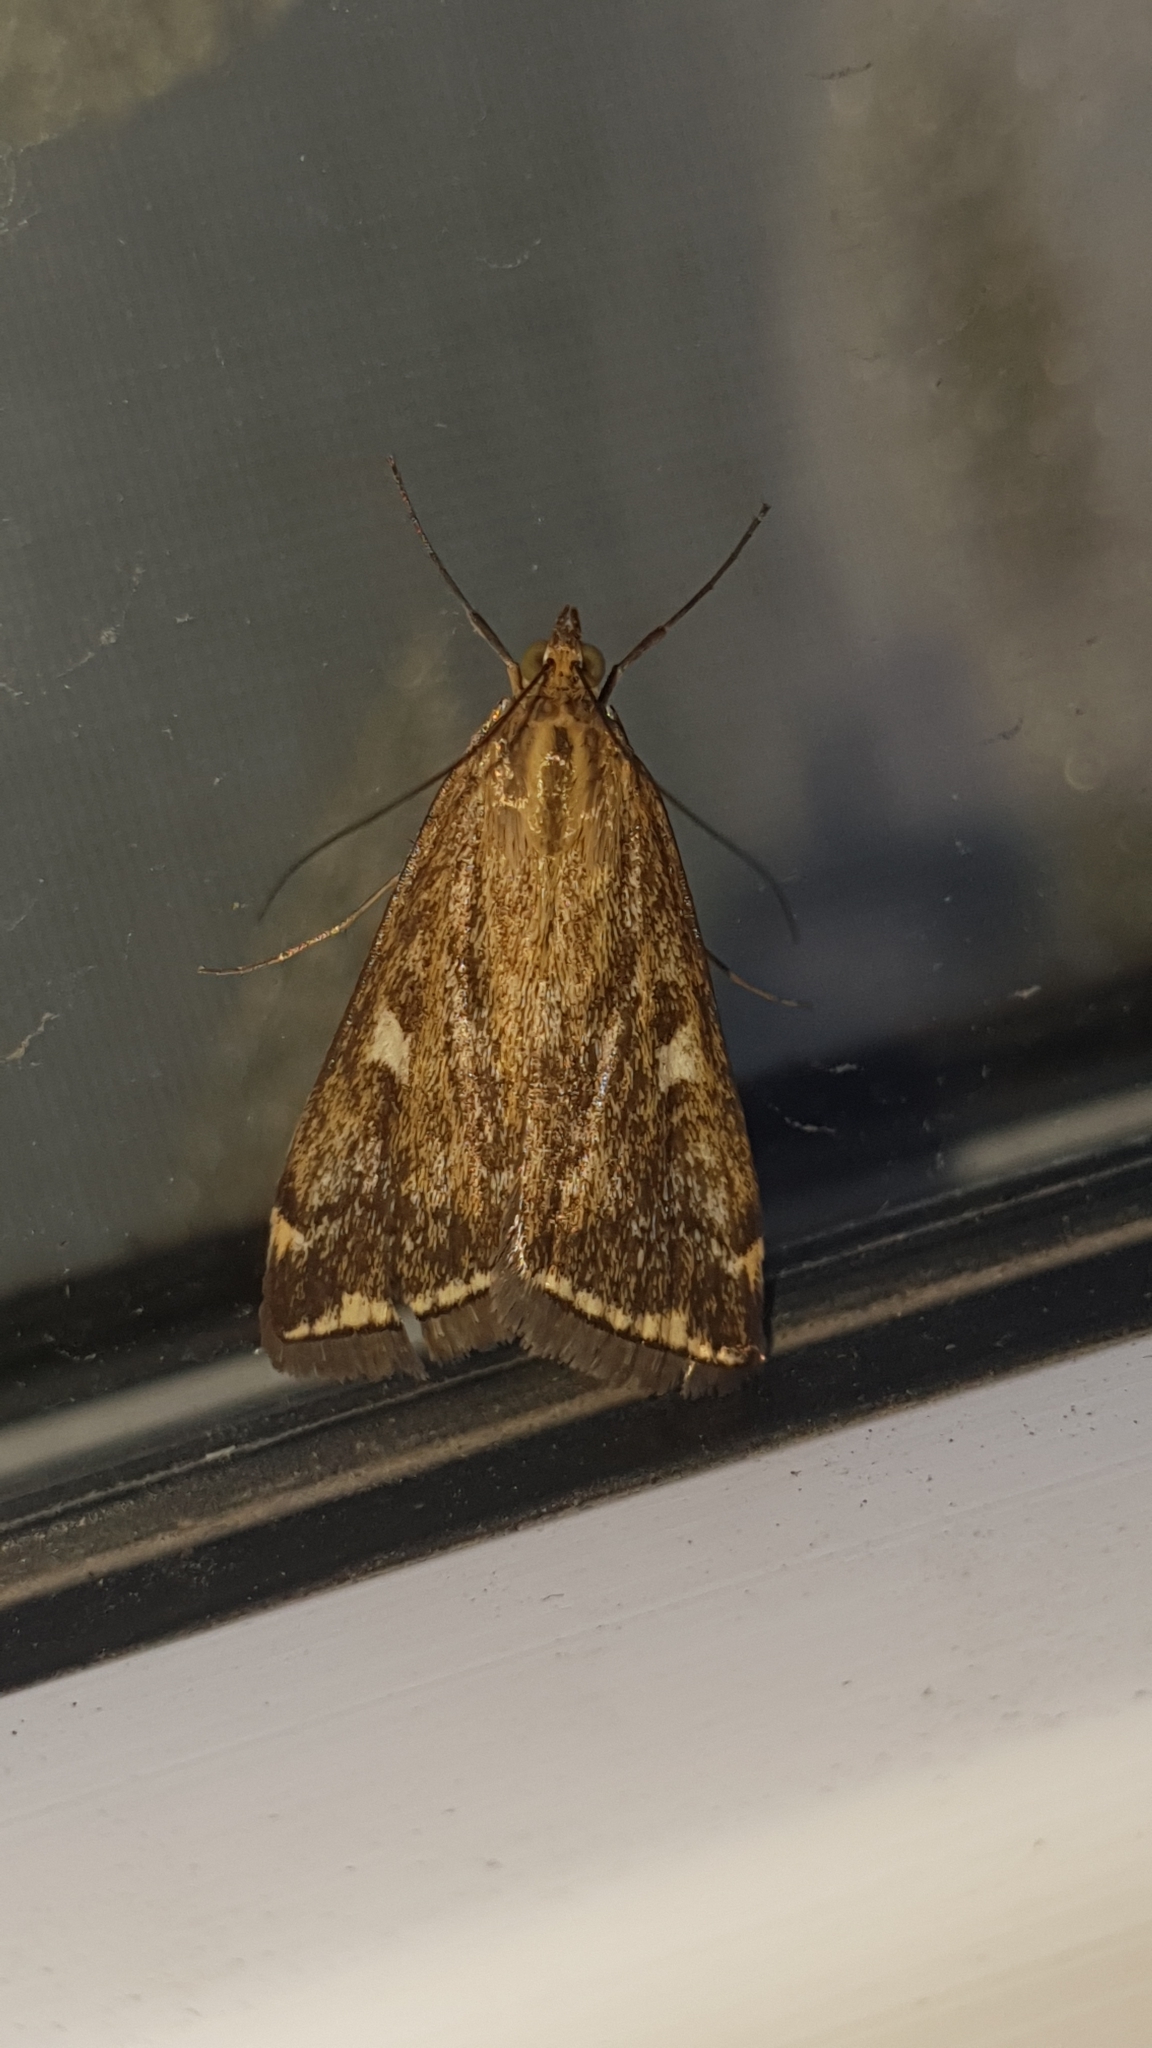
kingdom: Animalia
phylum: Arthropoda
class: Insecta
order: Lepidoptera
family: Crambidae
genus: Loxostege
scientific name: Loxostege sticticalis
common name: Crambid moth
